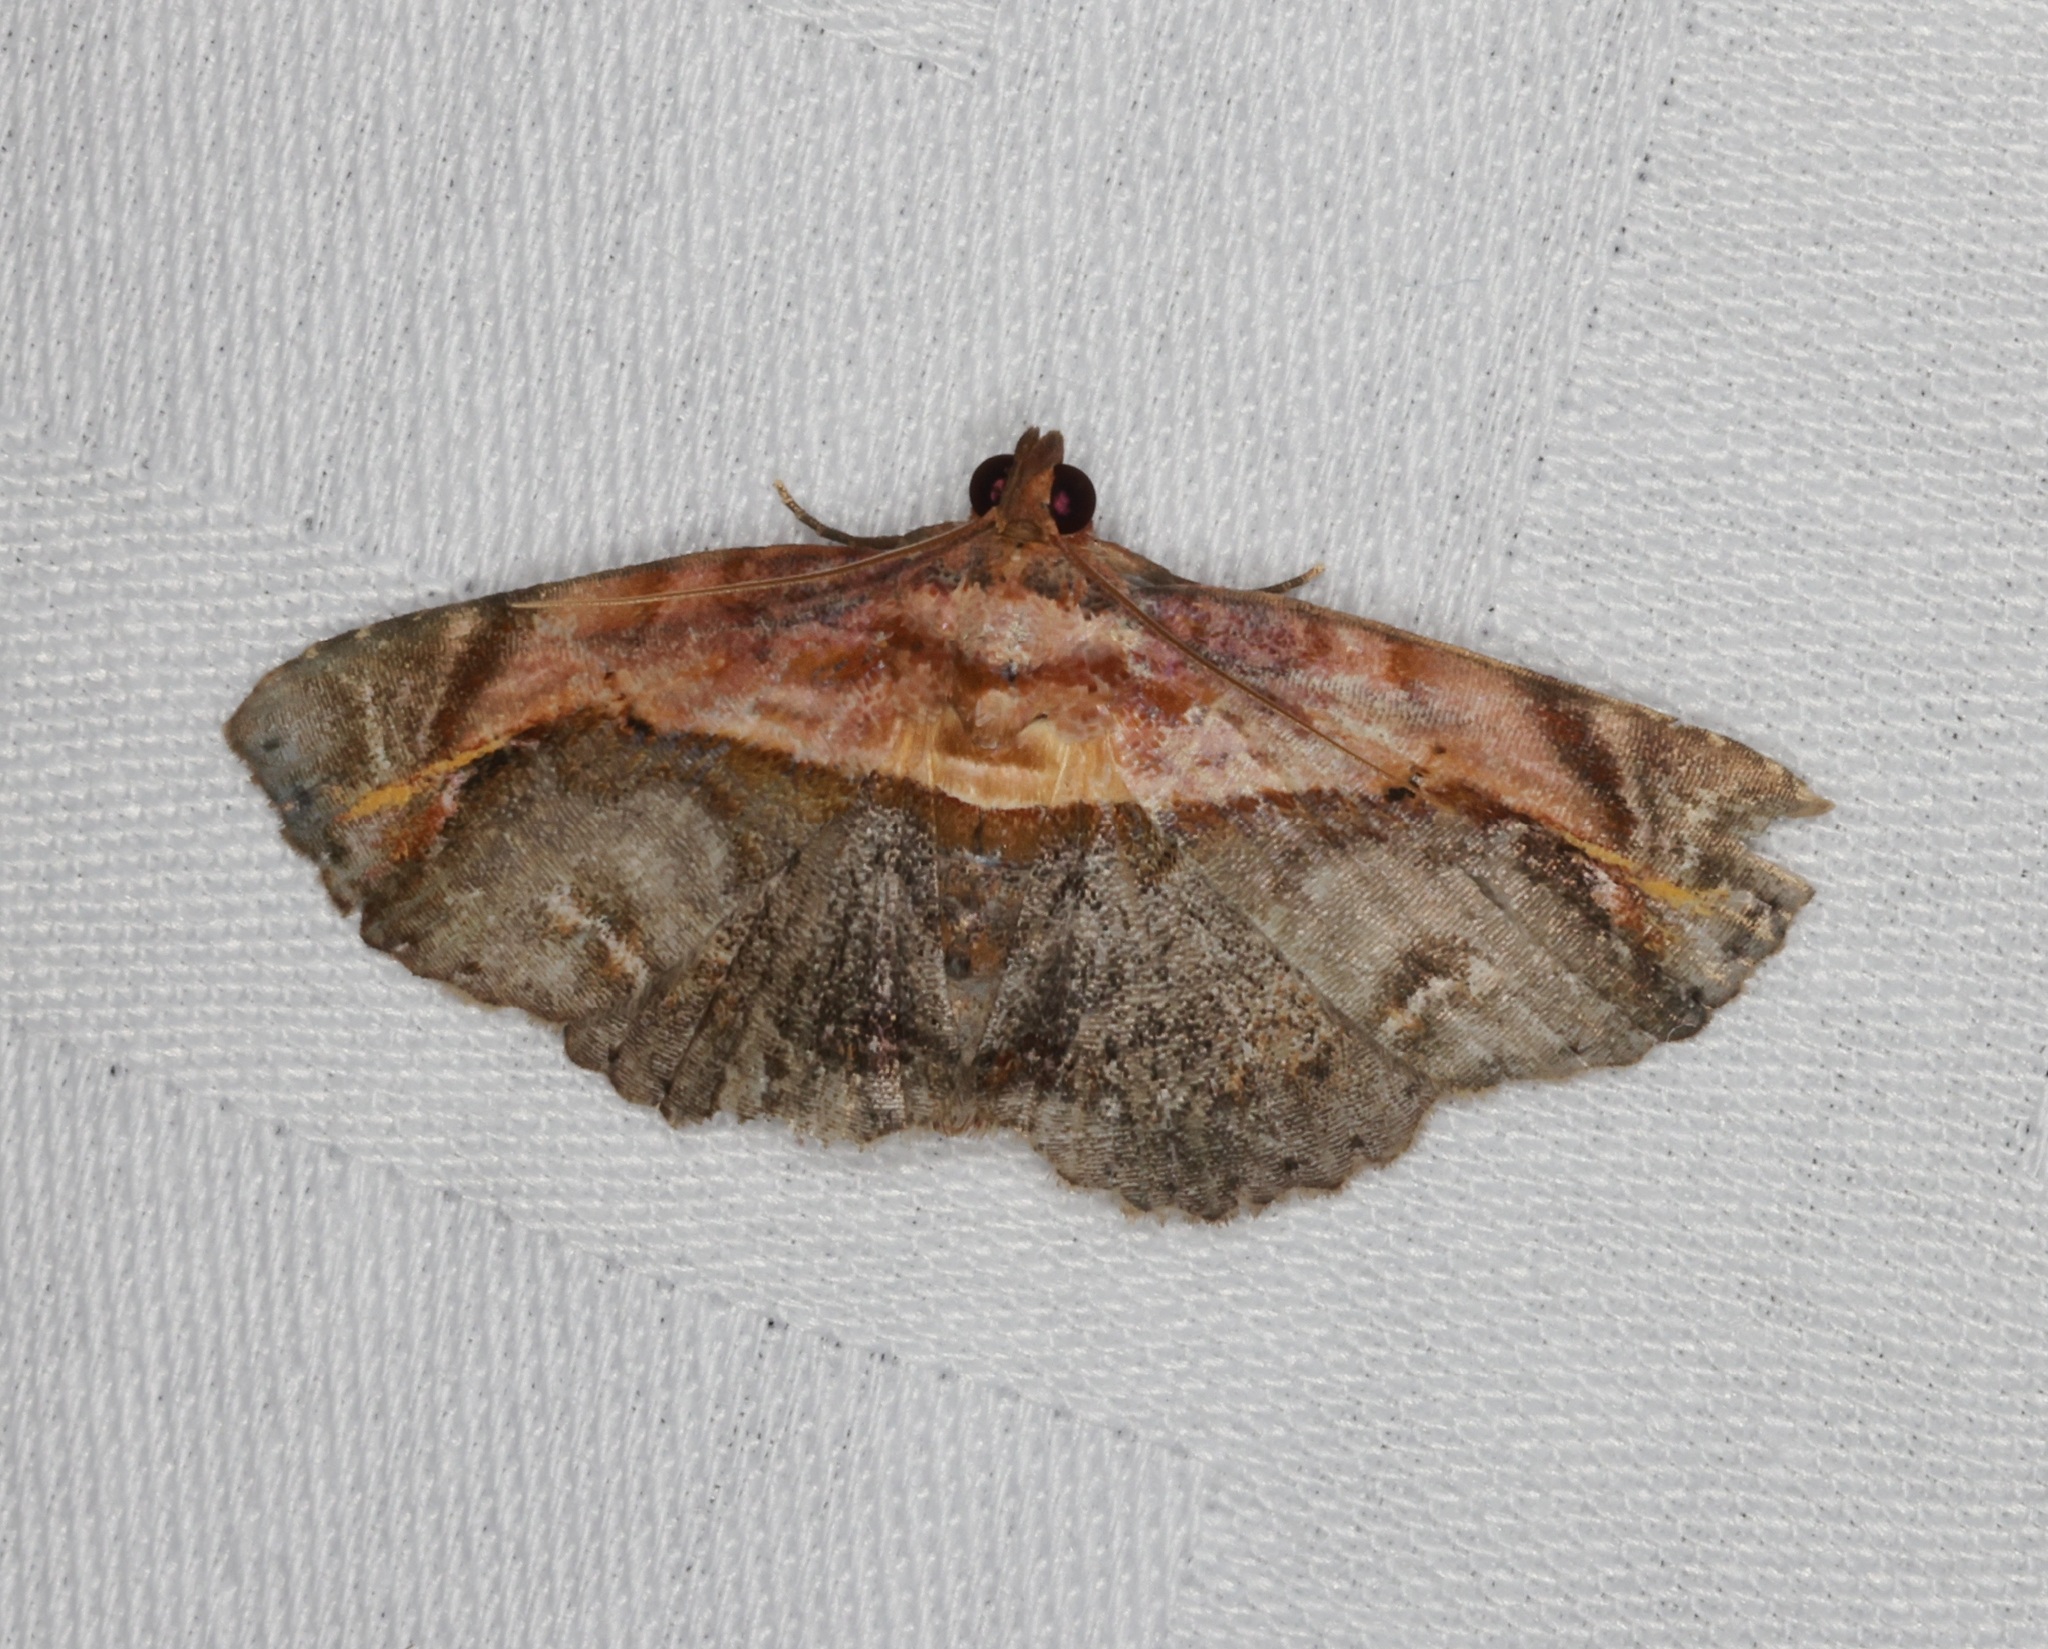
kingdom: Animalia
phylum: Arthropoda
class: Insecta
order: Lepidoptera
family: Noctuidae
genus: Lophoruza
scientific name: Lophoruza pulcherrima
